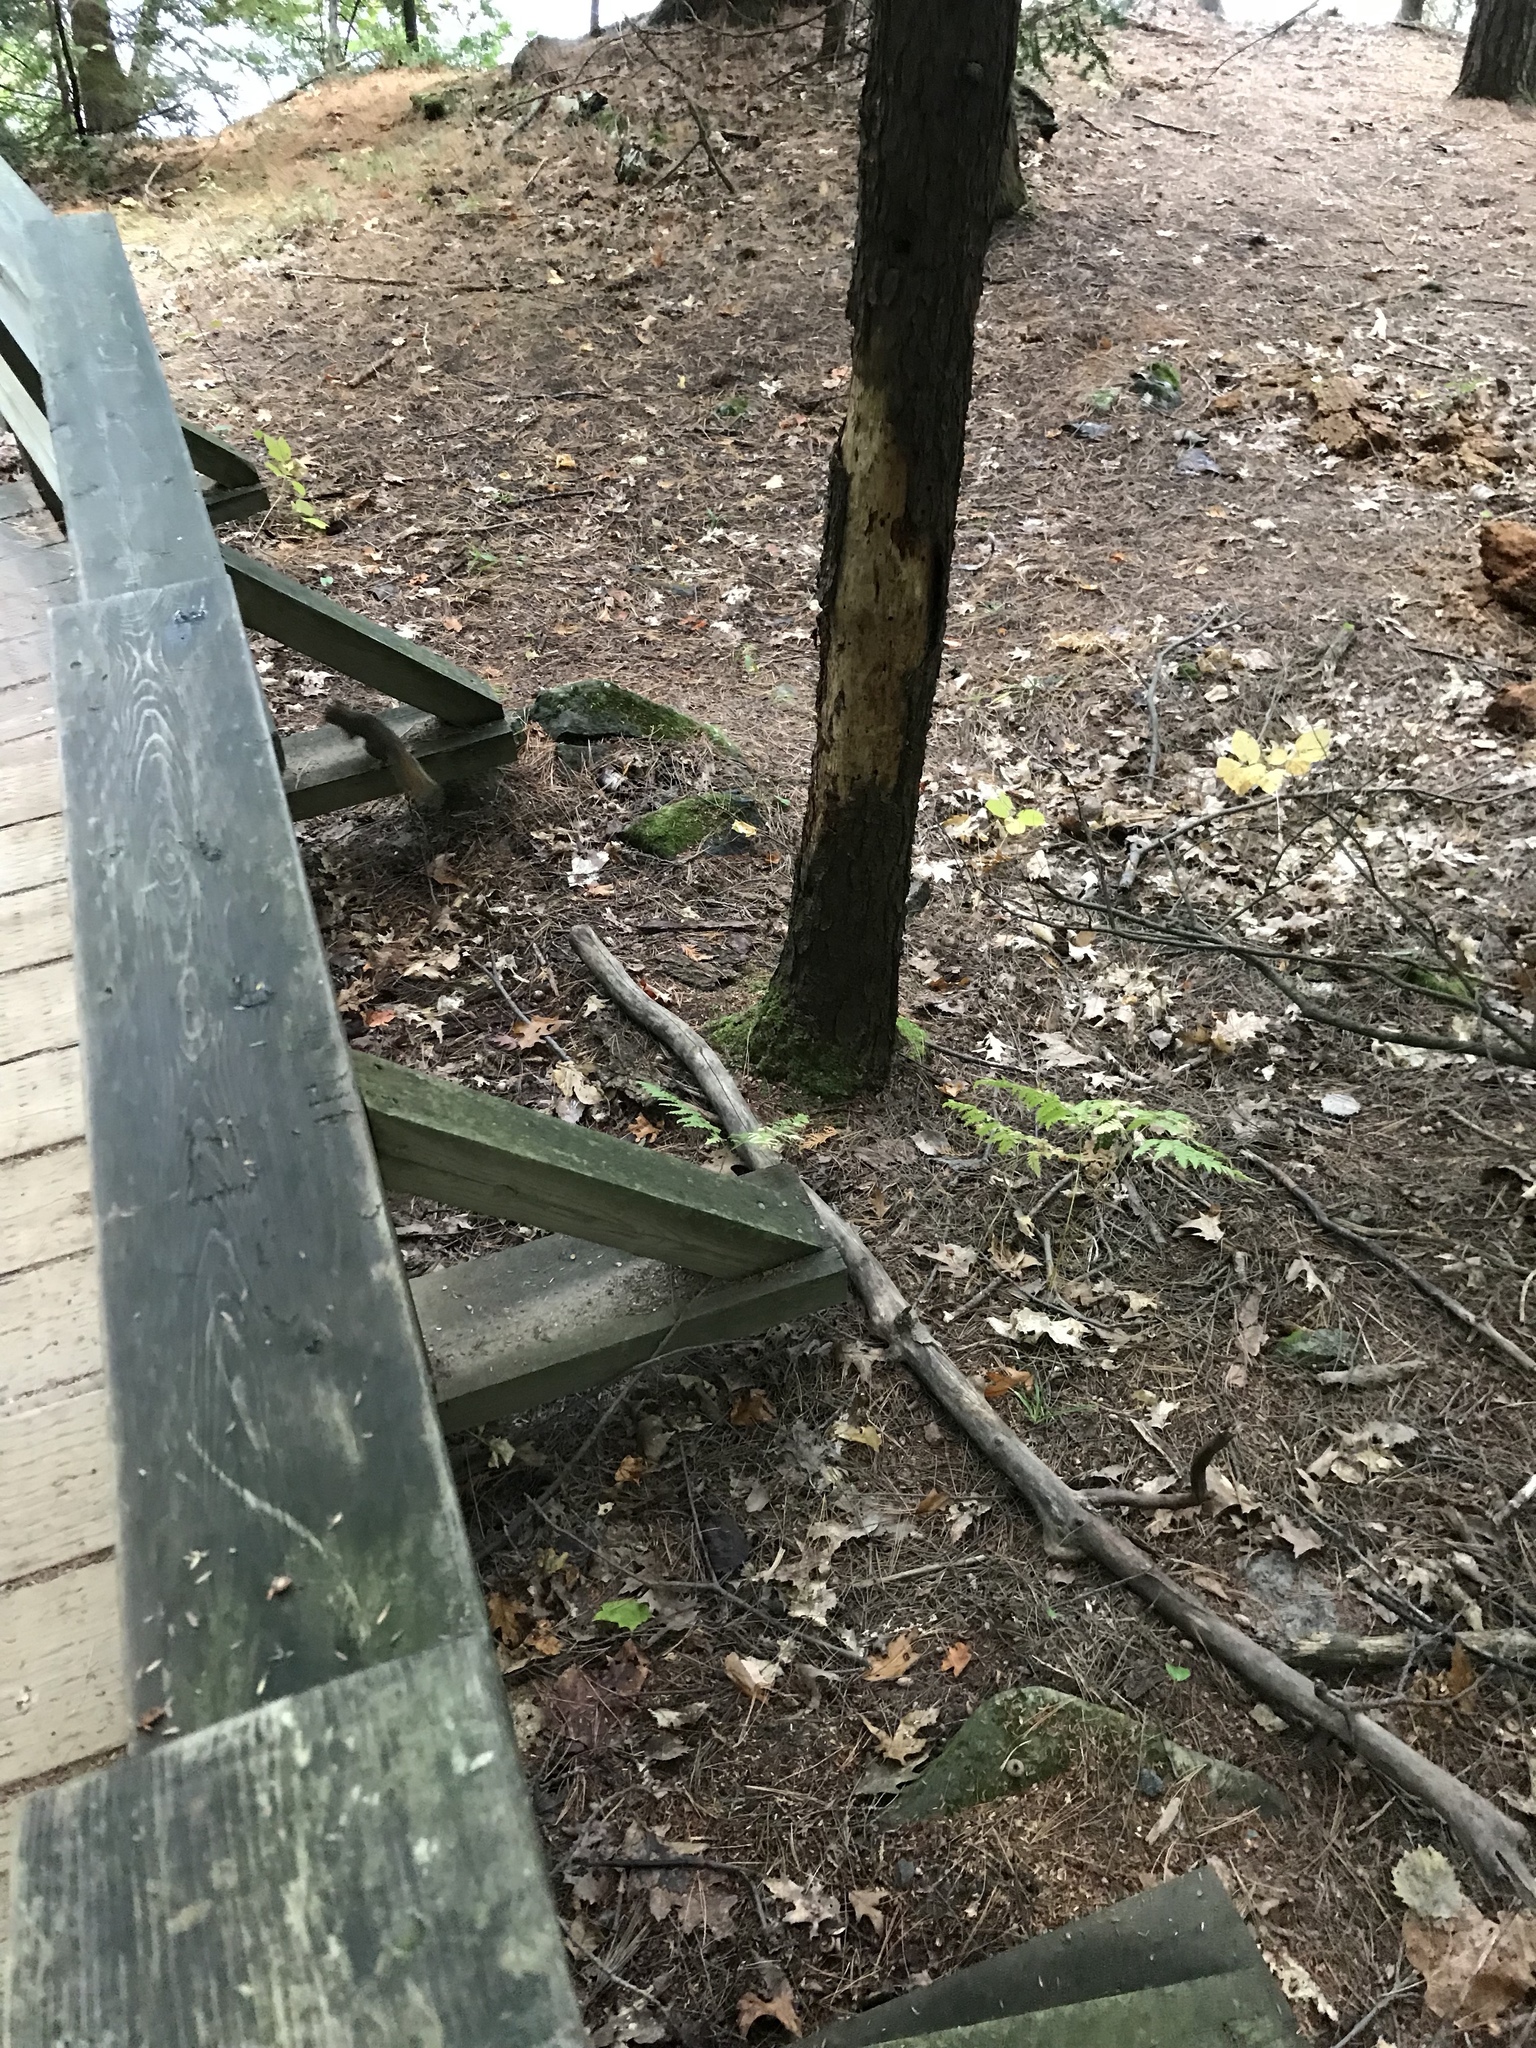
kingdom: Animalia
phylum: Chordata
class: Mammalia
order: Rodentia
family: Sciuridae
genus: Sciurus
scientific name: Sciurus carolinensis
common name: Eastern gray squirrel
